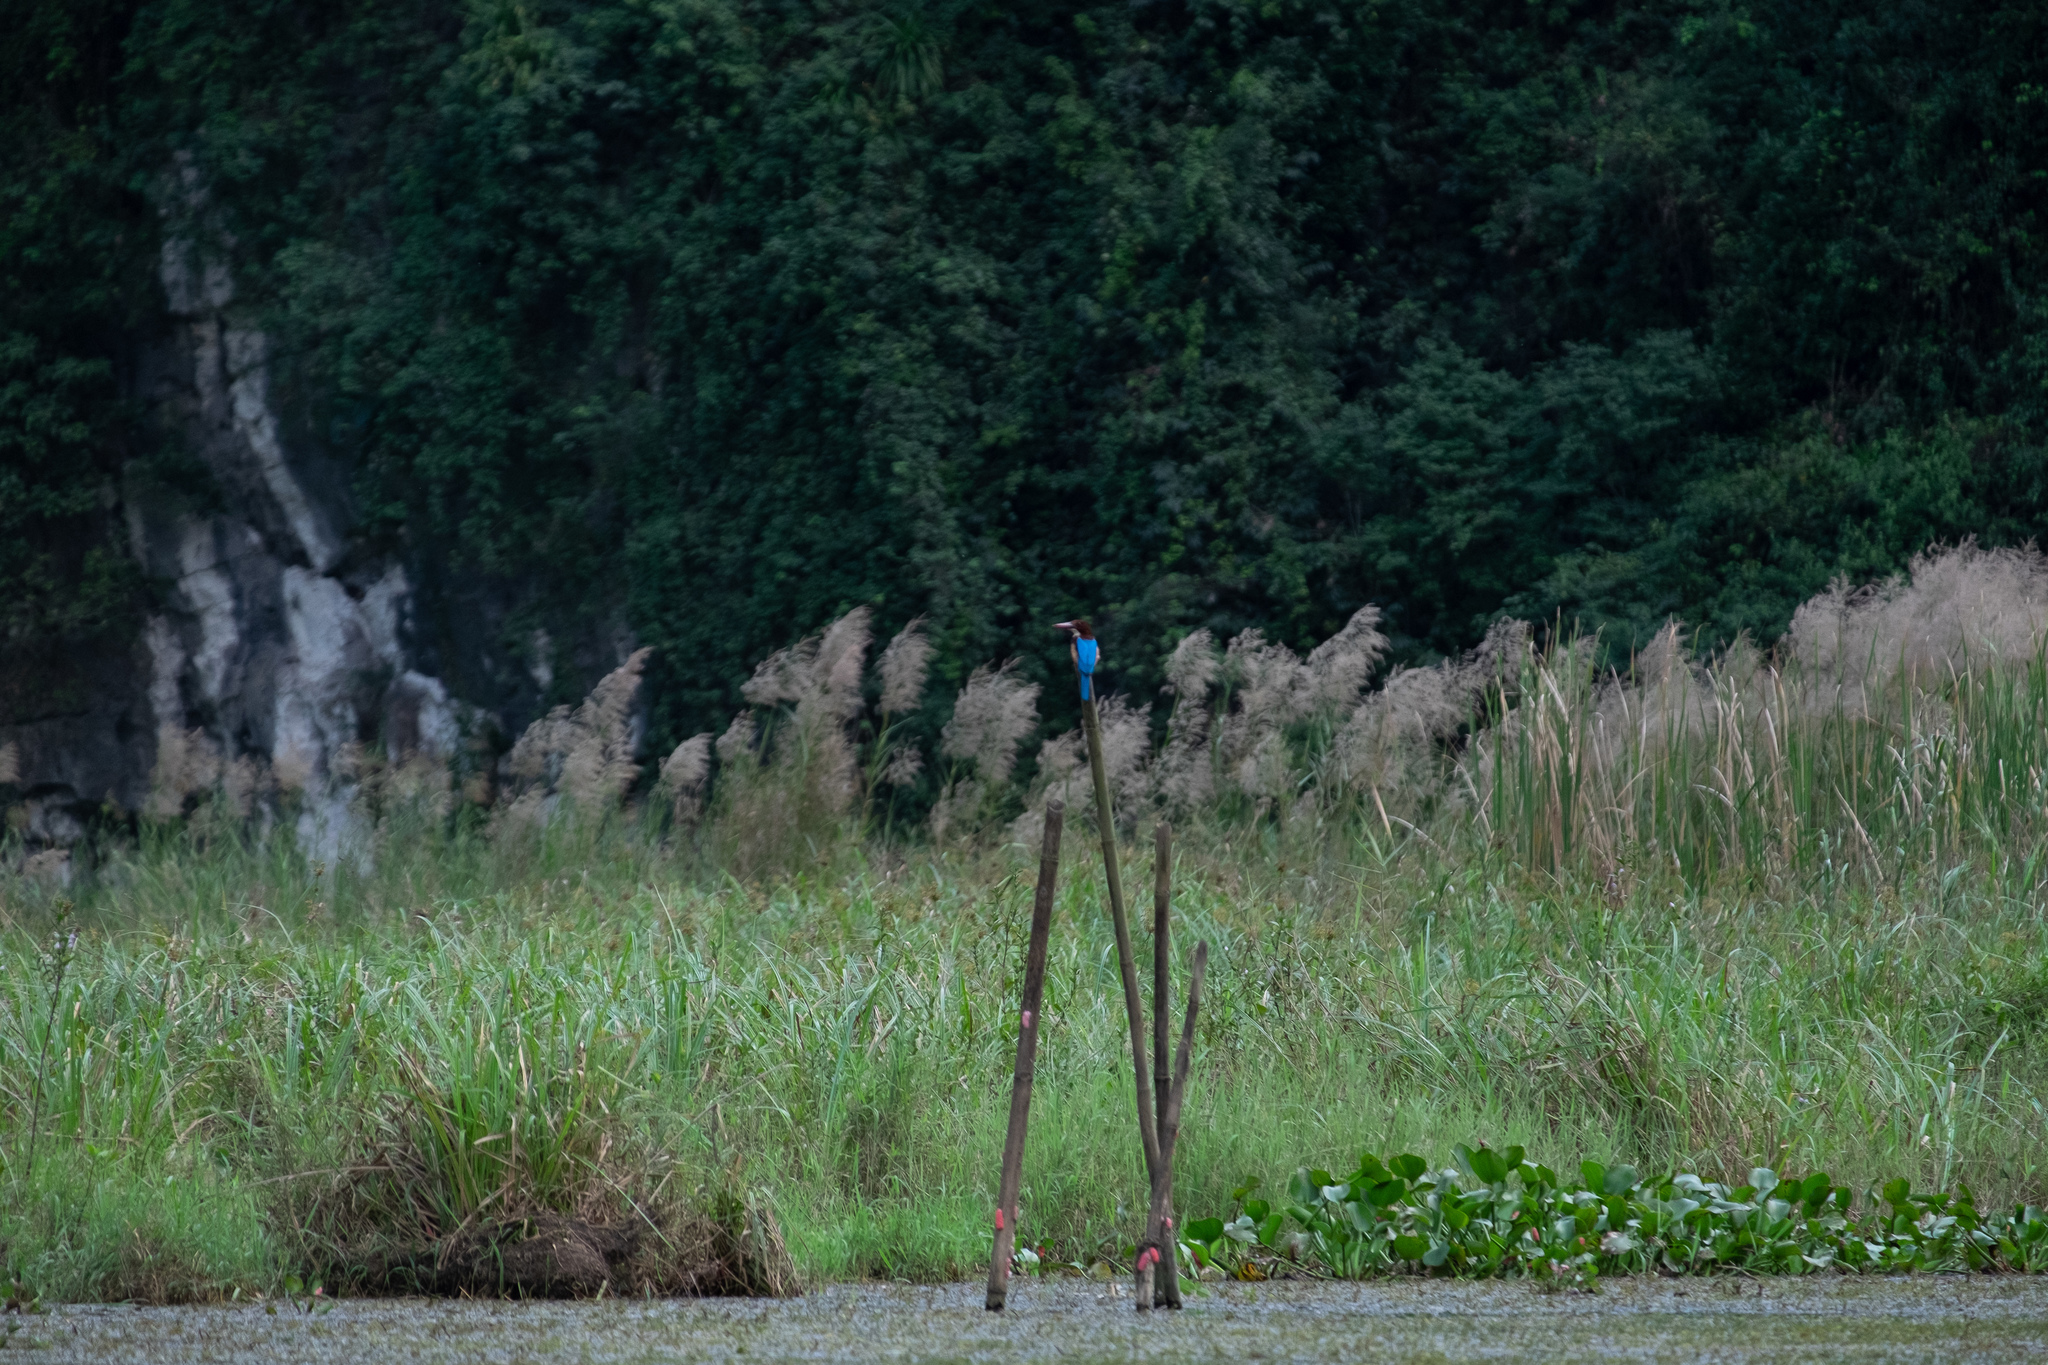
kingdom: Animalia
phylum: Chordata
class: Aves
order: Coraciiformes
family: Alcedinidae
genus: Halcyon
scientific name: Halcyon smyrnensis
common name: White-throated kingfisher
